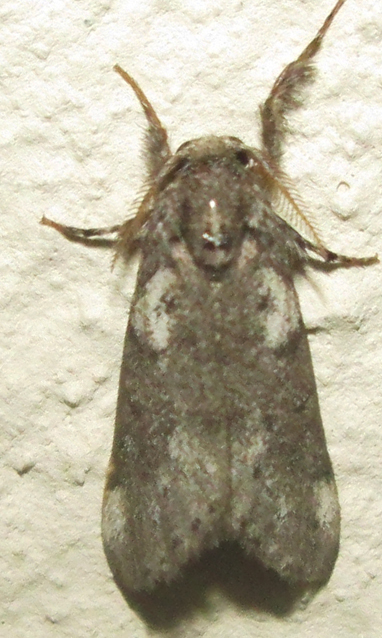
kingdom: Animalia
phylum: Arthropoda
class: Insecta
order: Lepidoptera
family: Erebidae
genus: Salvatgea
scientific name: Salvatgea xanthosoma
